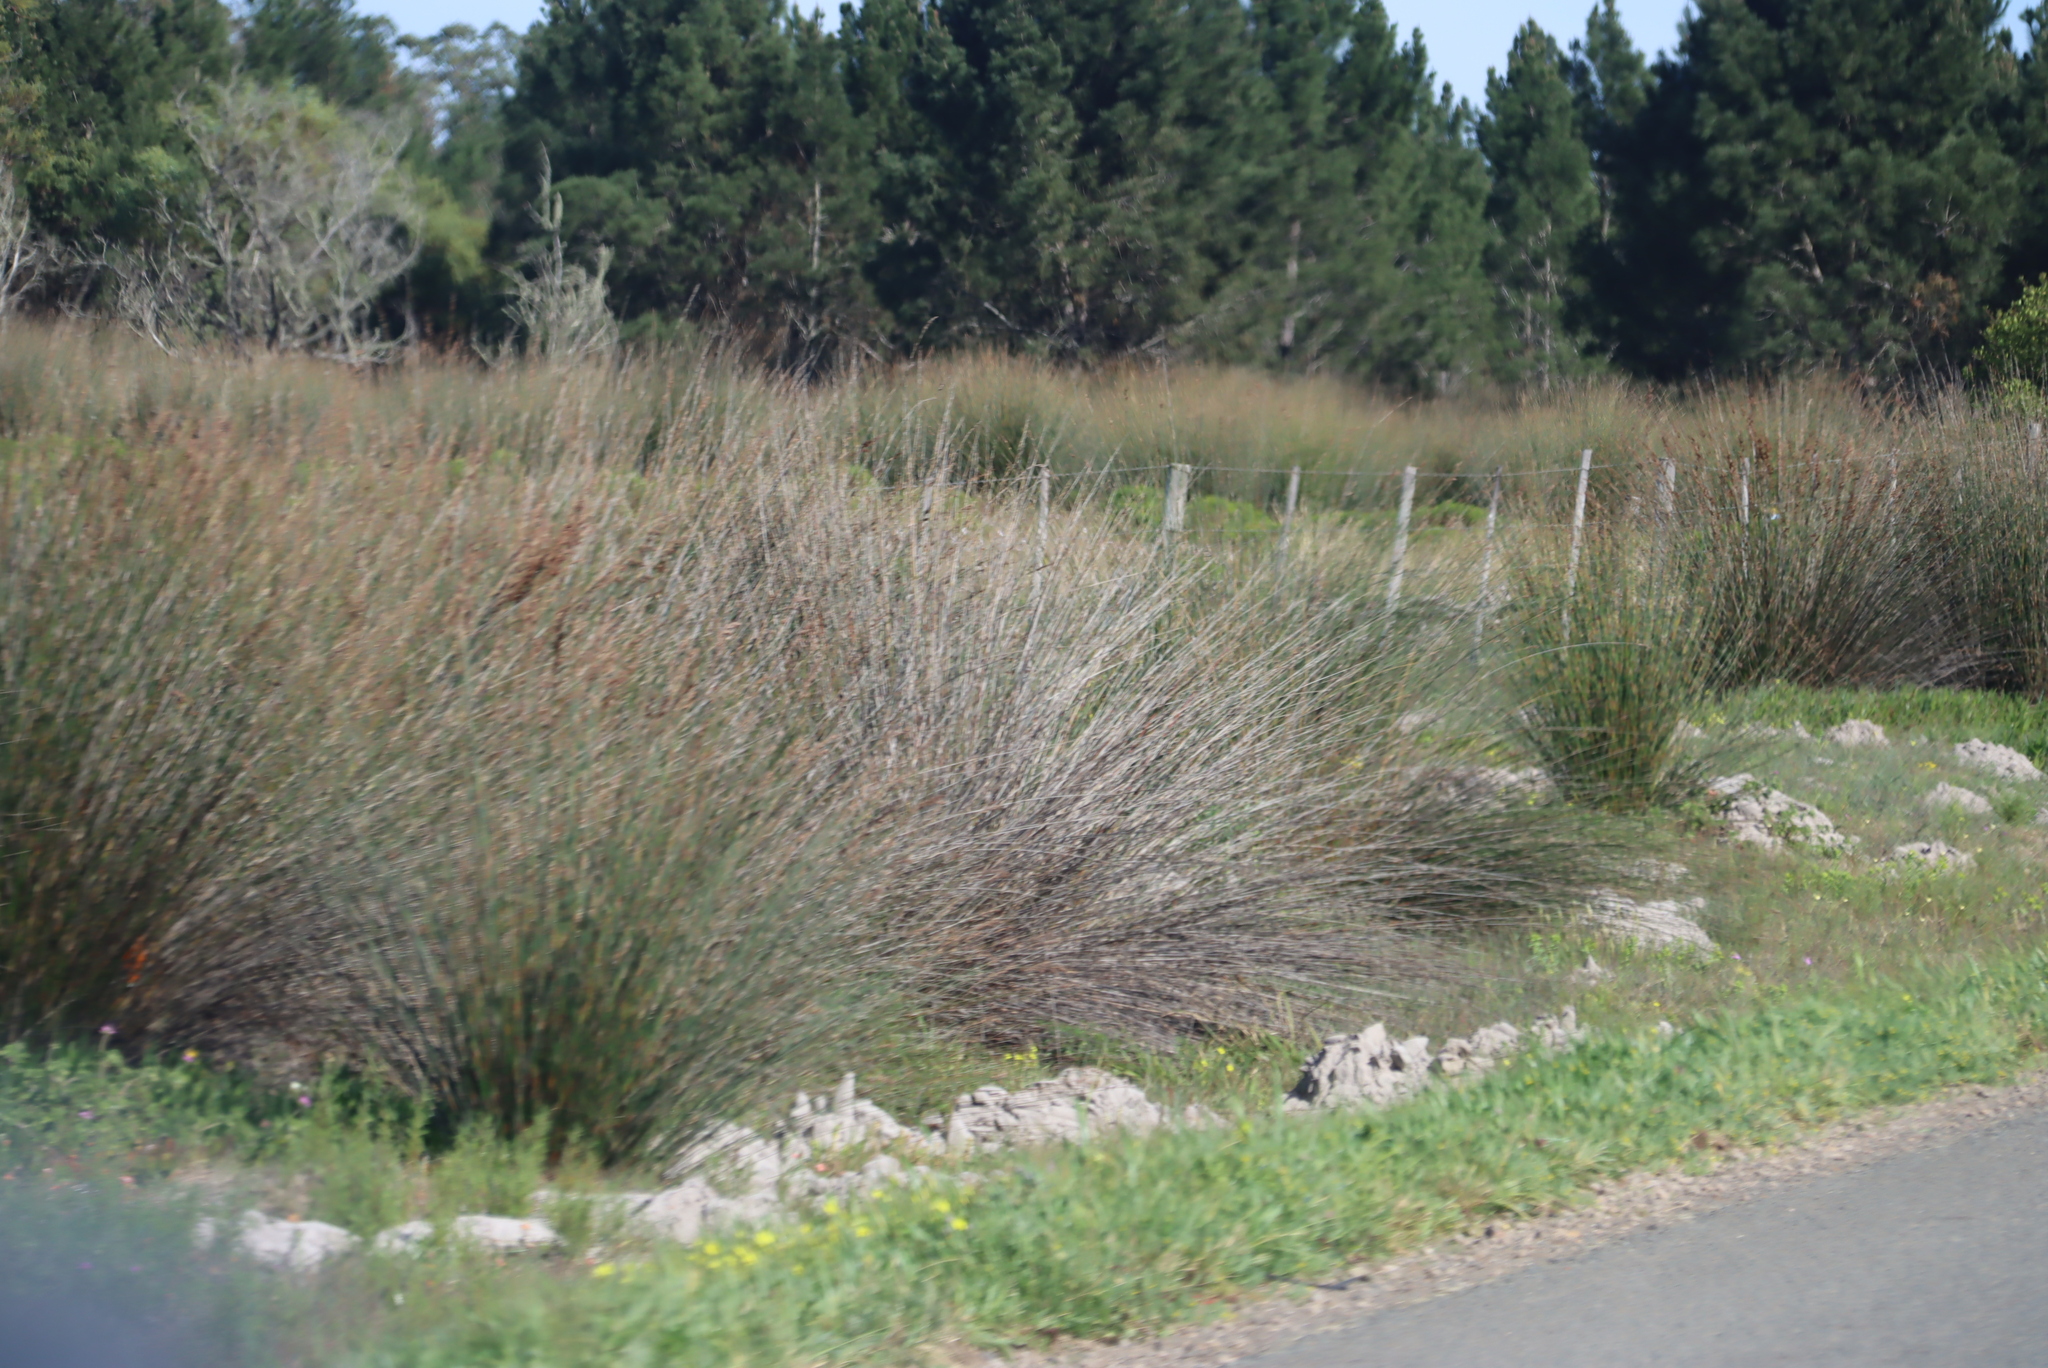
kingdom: Plantae
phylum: Tracheophyta
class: Liliopsida
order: Poales
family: Restionaceae
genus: Thamnochortus
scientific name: Thamnochortus insignis
